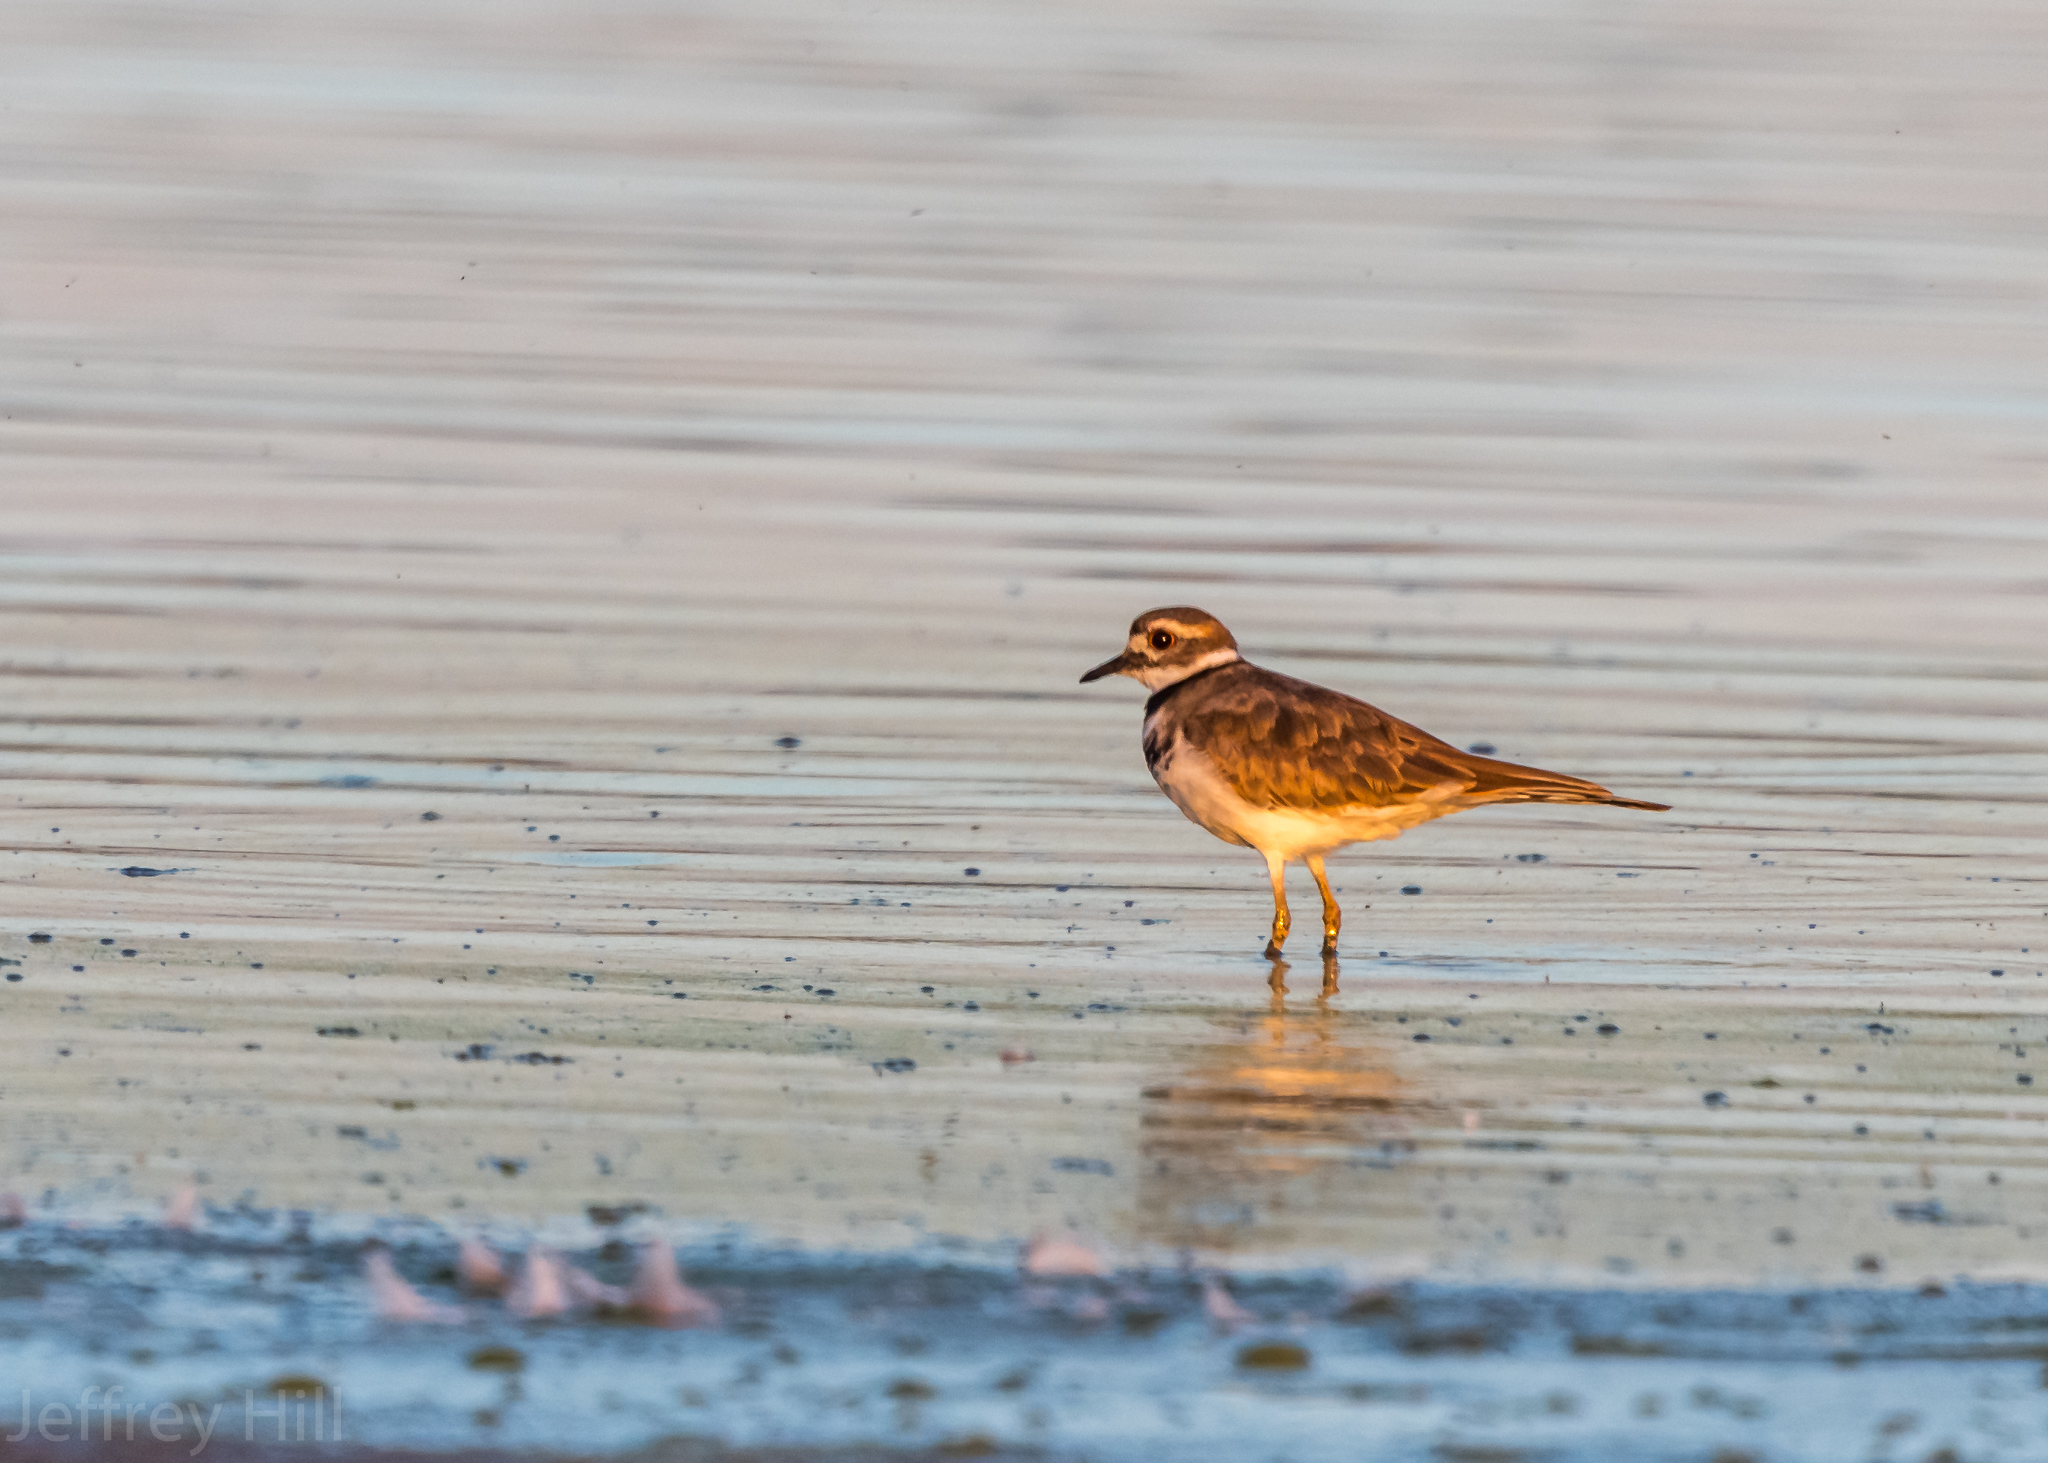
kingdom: Animalia
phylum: Chordata
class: Aves
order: Charadriiformes
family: Charadriidae
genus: Charadrius
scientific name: Charadrius vociferus
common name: Killdeer
